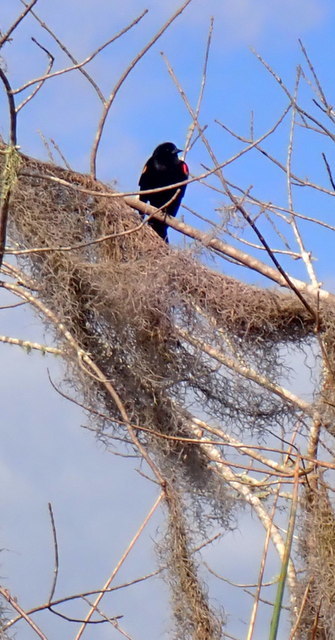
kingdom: Animalia
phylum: Chordata
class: Aves
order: Passeriformes
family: Icteridae
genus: Agelaius
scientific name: Agelaius phoeniceus
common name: Red-winged blackbird
